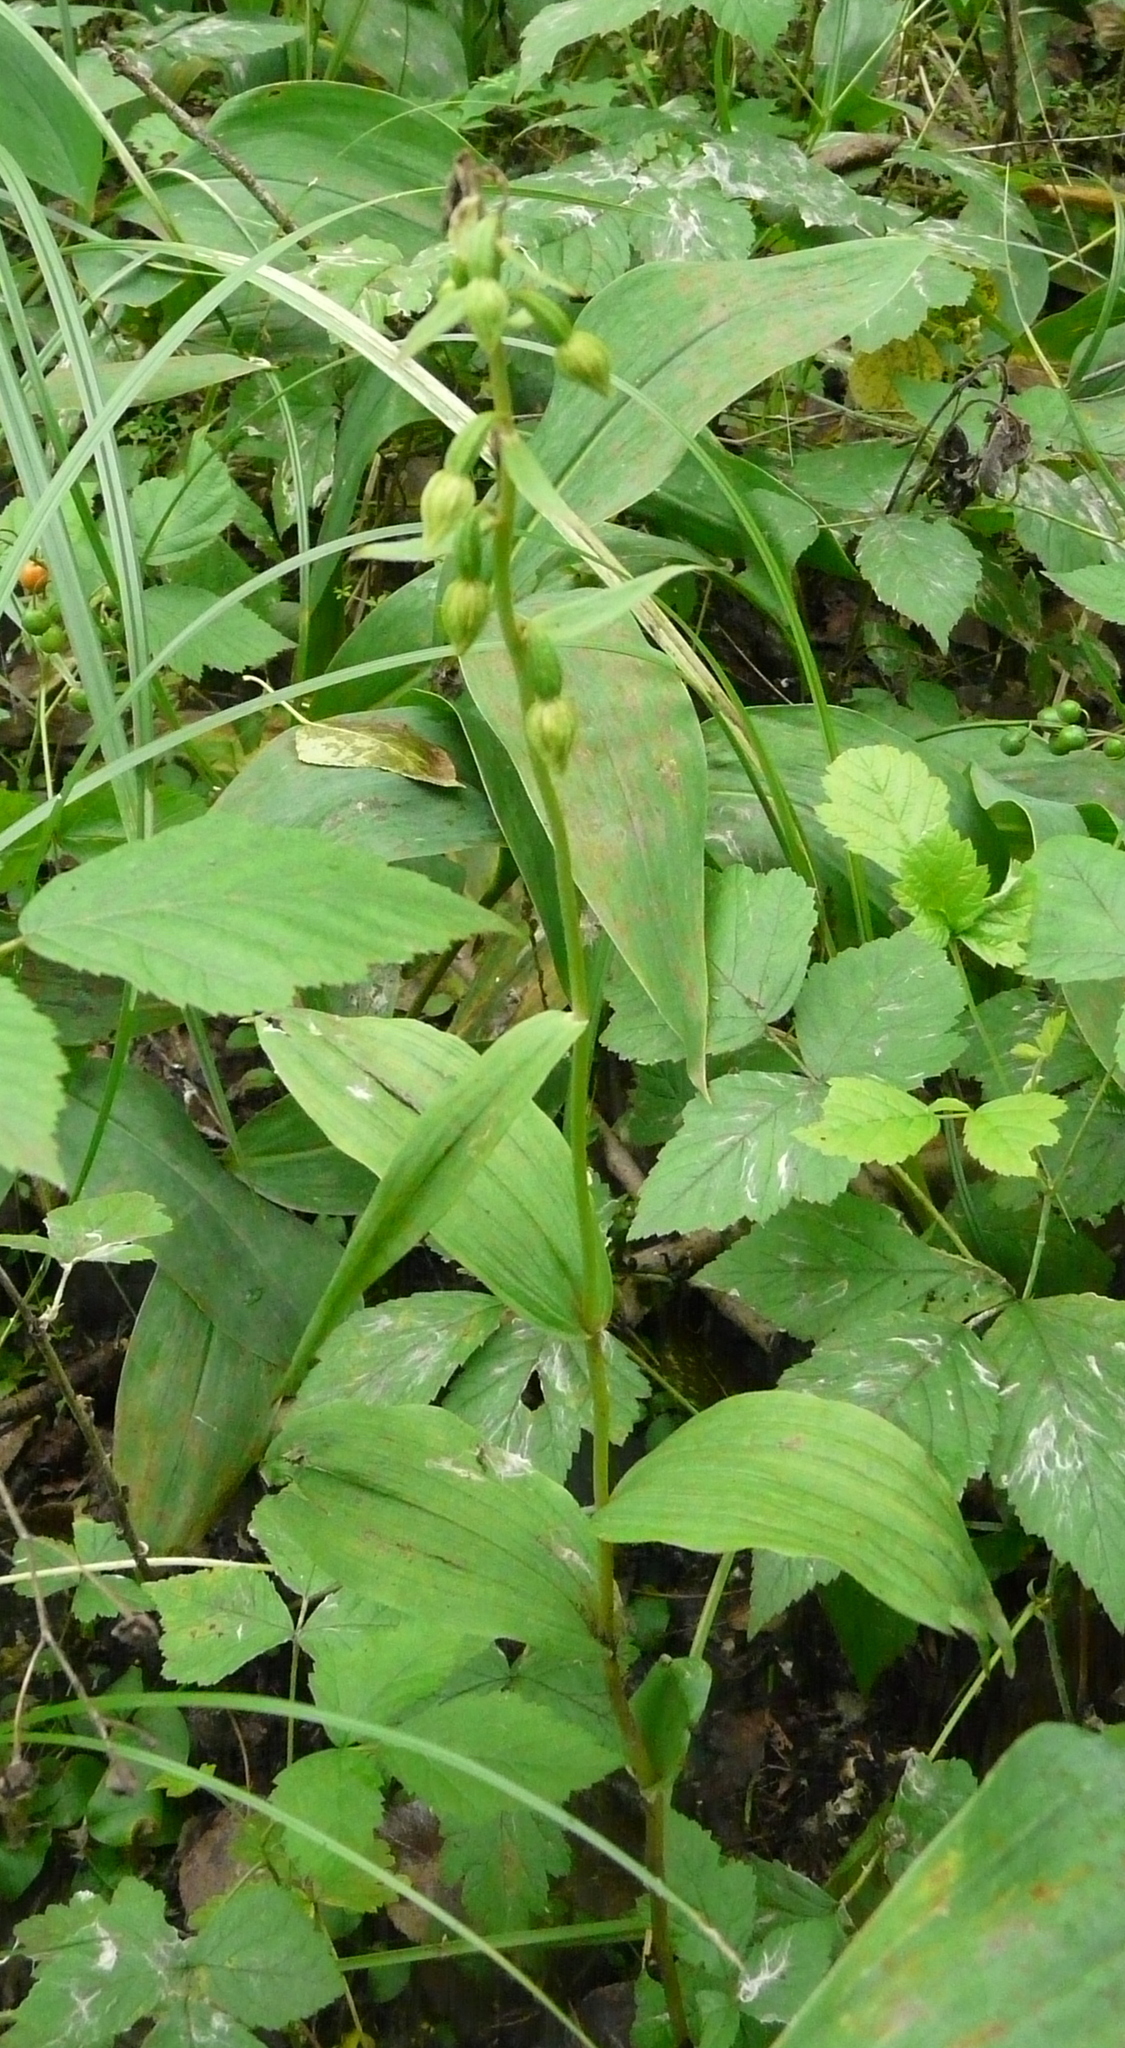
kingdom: Plantae
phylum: Tracheophyta
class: Liliopsida
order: Asparagales
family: Orchidaceae
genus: Epipactis
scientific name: Epipactis helleborine
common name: Broad-leaved helleborine
